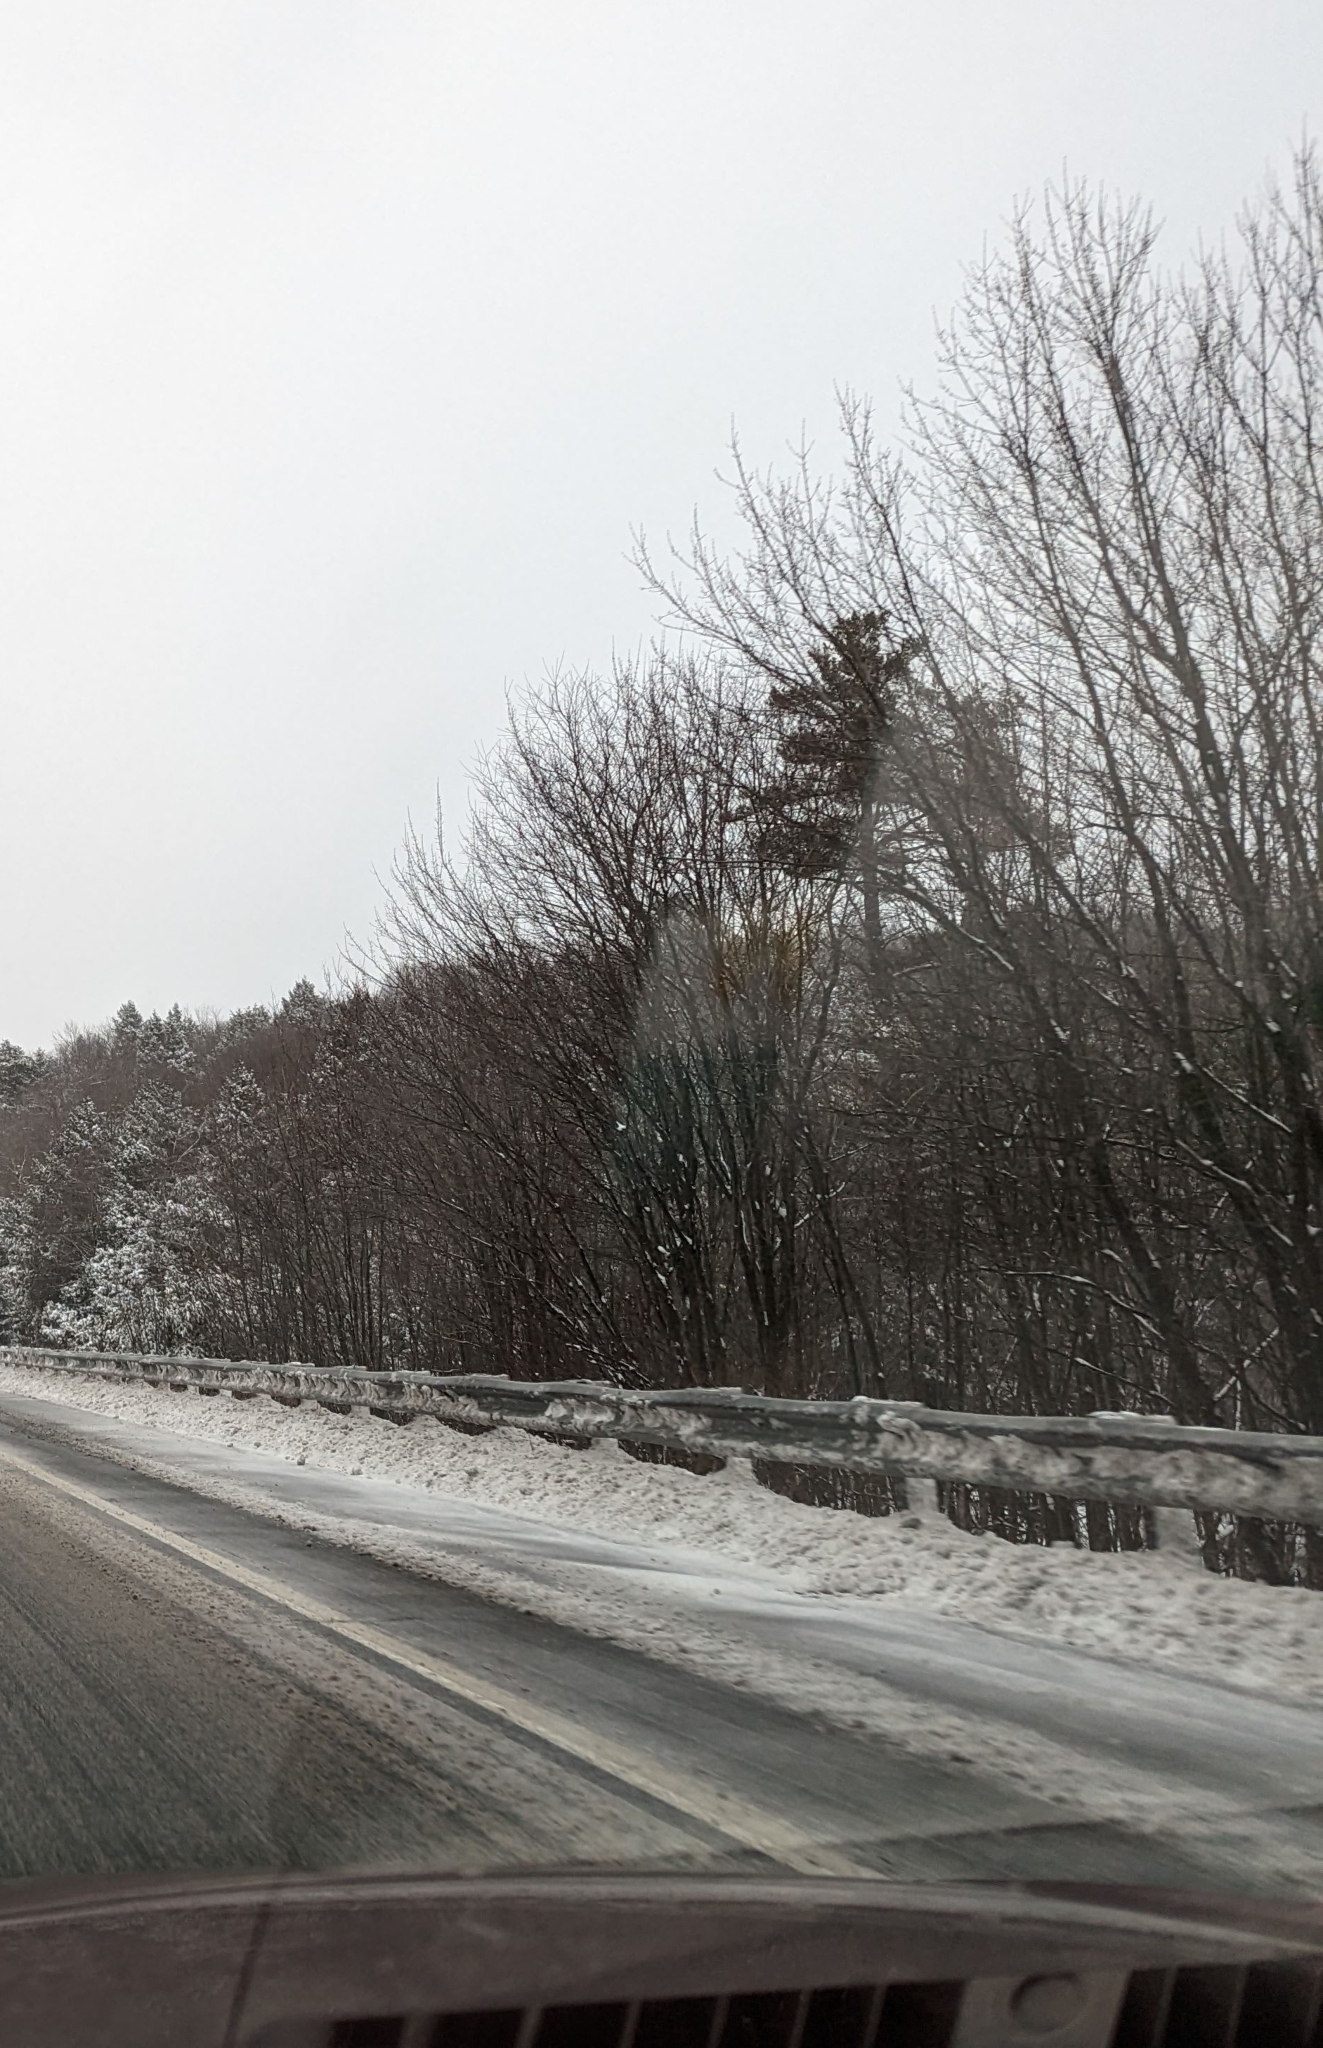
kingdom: Plantae
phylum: Tracheophyta
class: Pinopsida
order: Pinales
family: Pinaceae
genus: Pinus
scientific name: Pinus strobus
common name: Weymouth pine
